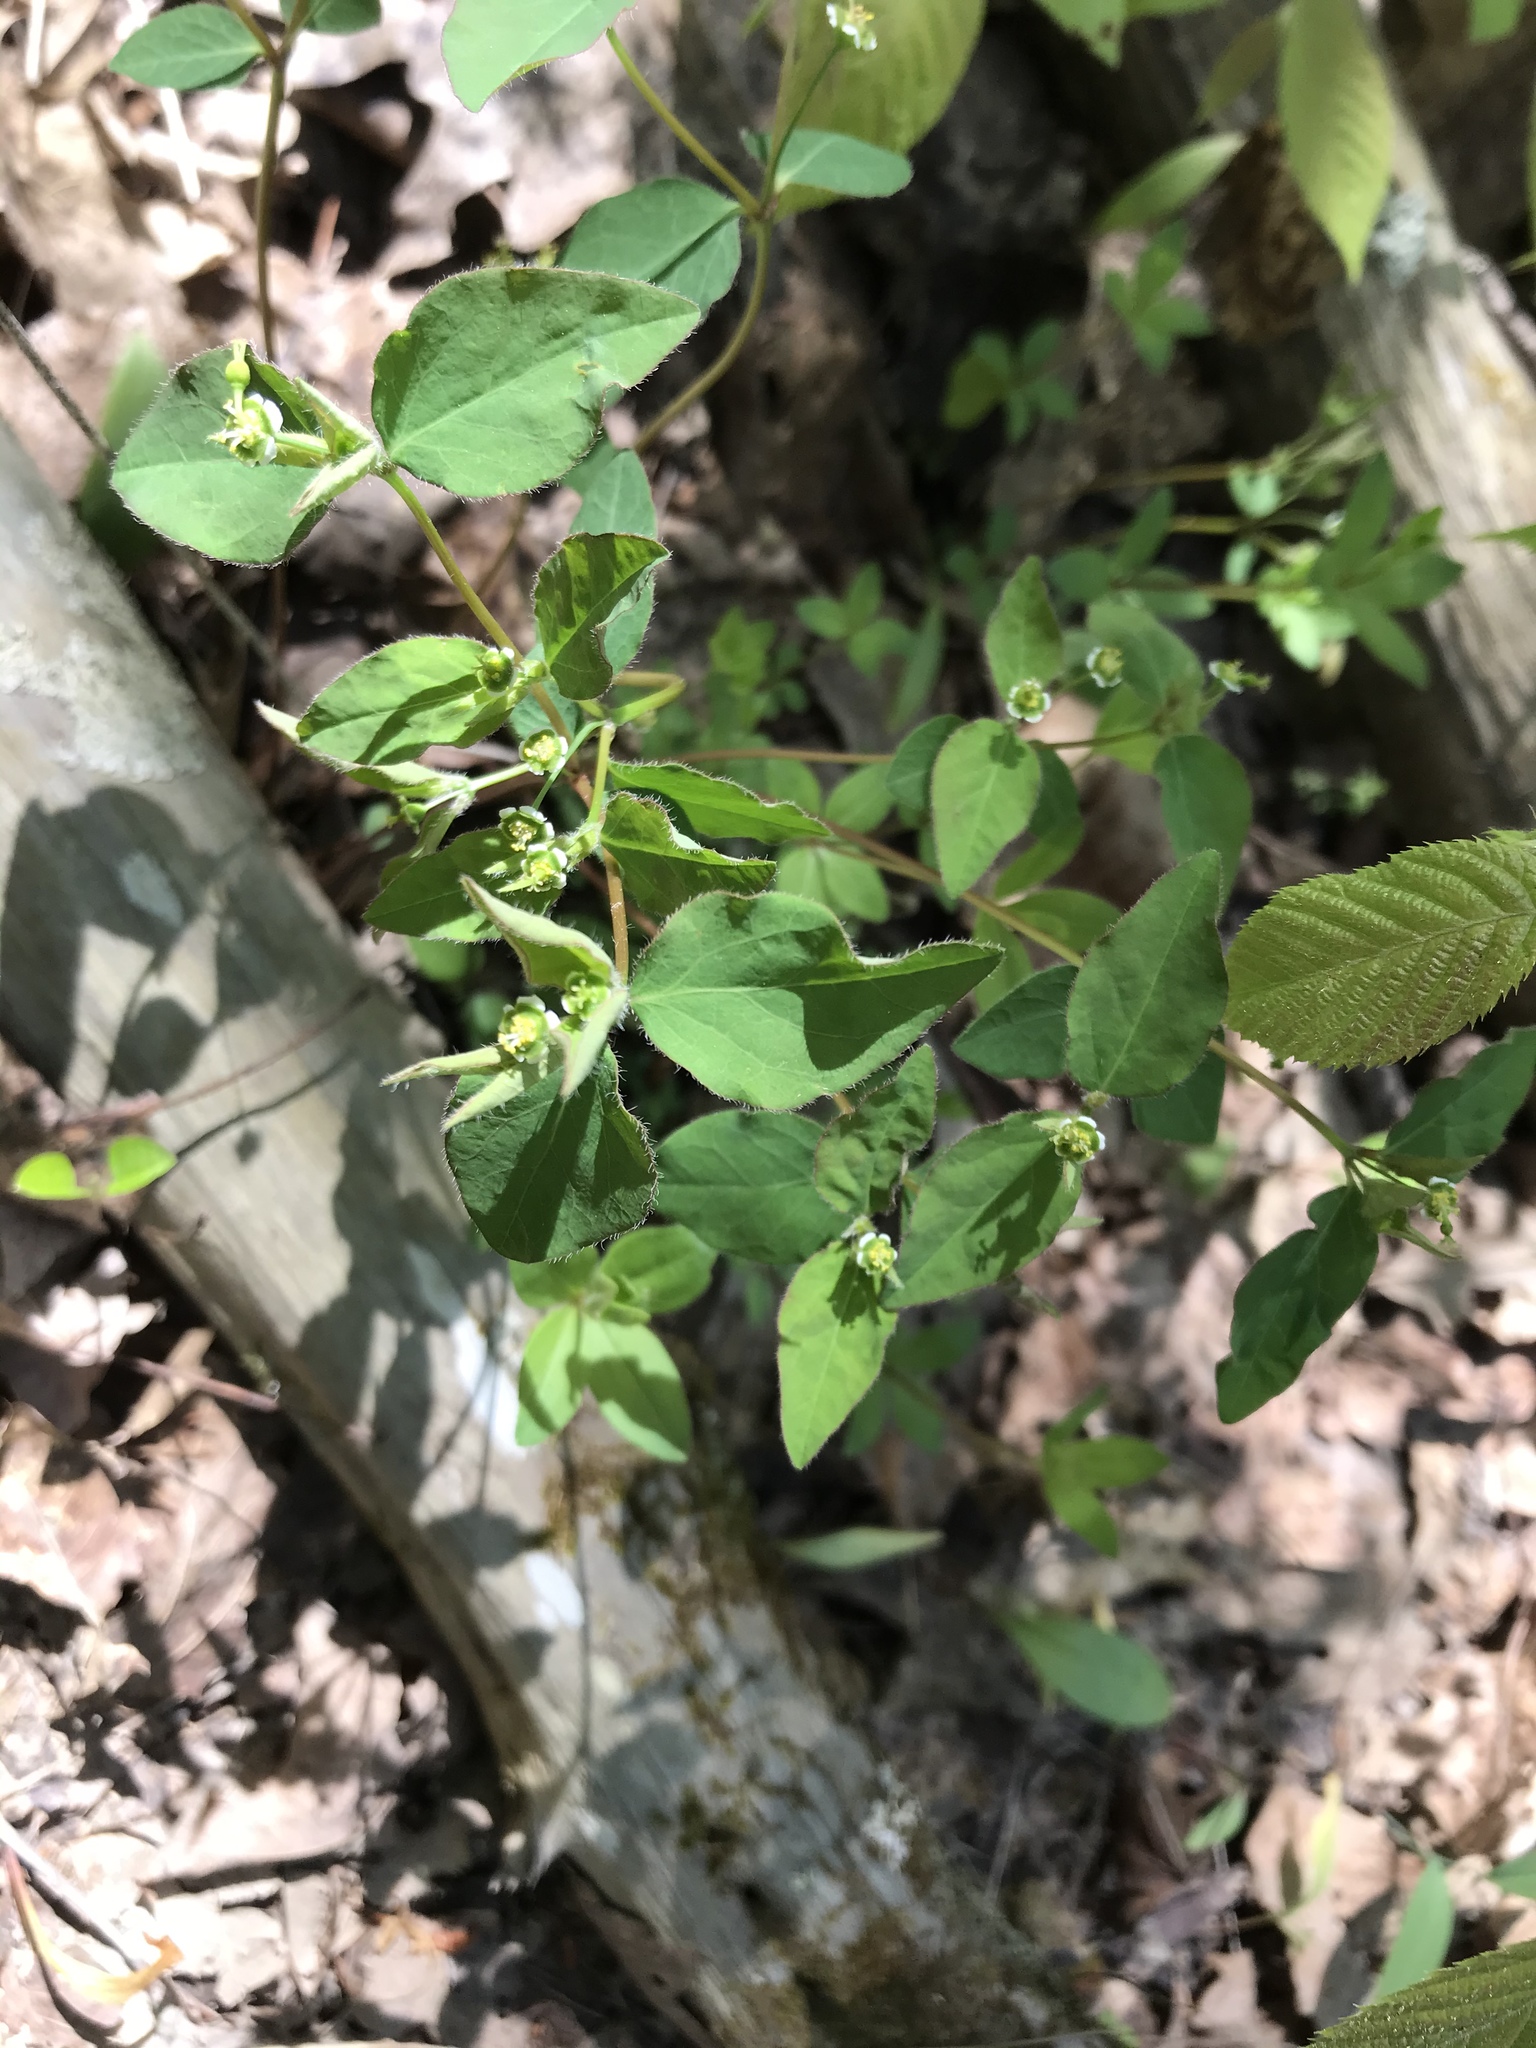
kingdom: Plantae
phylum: Tracheophyta
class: Magnoliopsida
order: Malpighiales
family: Euphorbiaceae
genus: Euphorbia
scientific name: Euphorbia mercurialina
